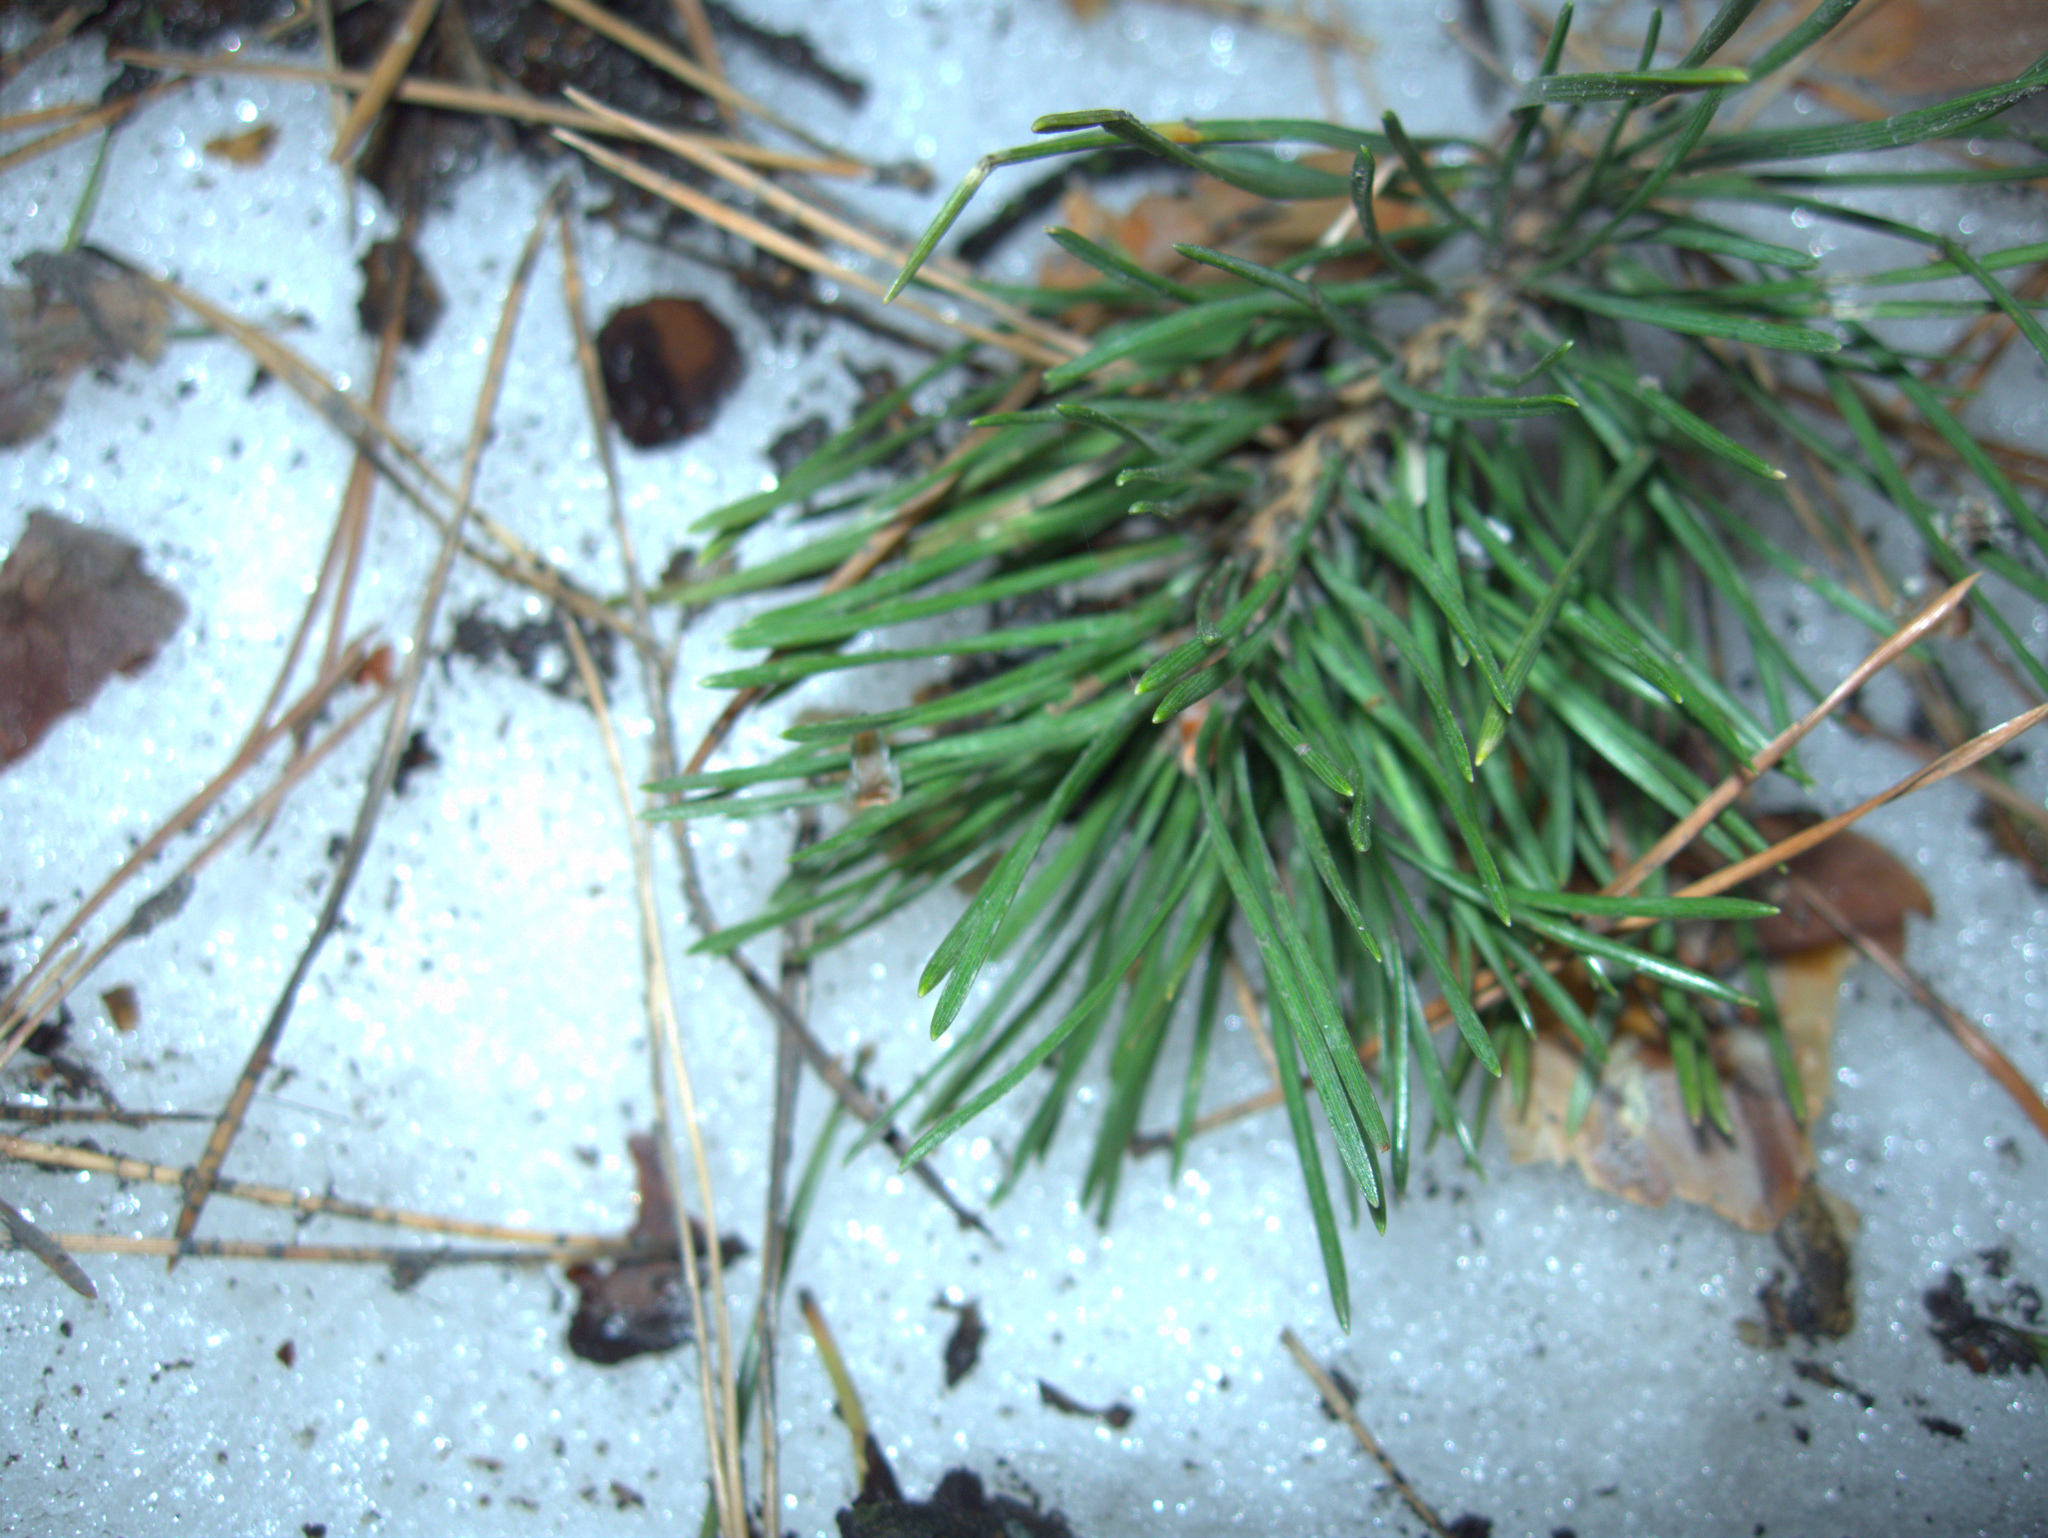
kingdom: Plantae
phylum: Tracheophyta
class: Pinopsida
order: Pinales
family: Pinaceae
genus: Pinus
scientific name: Pinus sylvestris
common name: Scots pine
